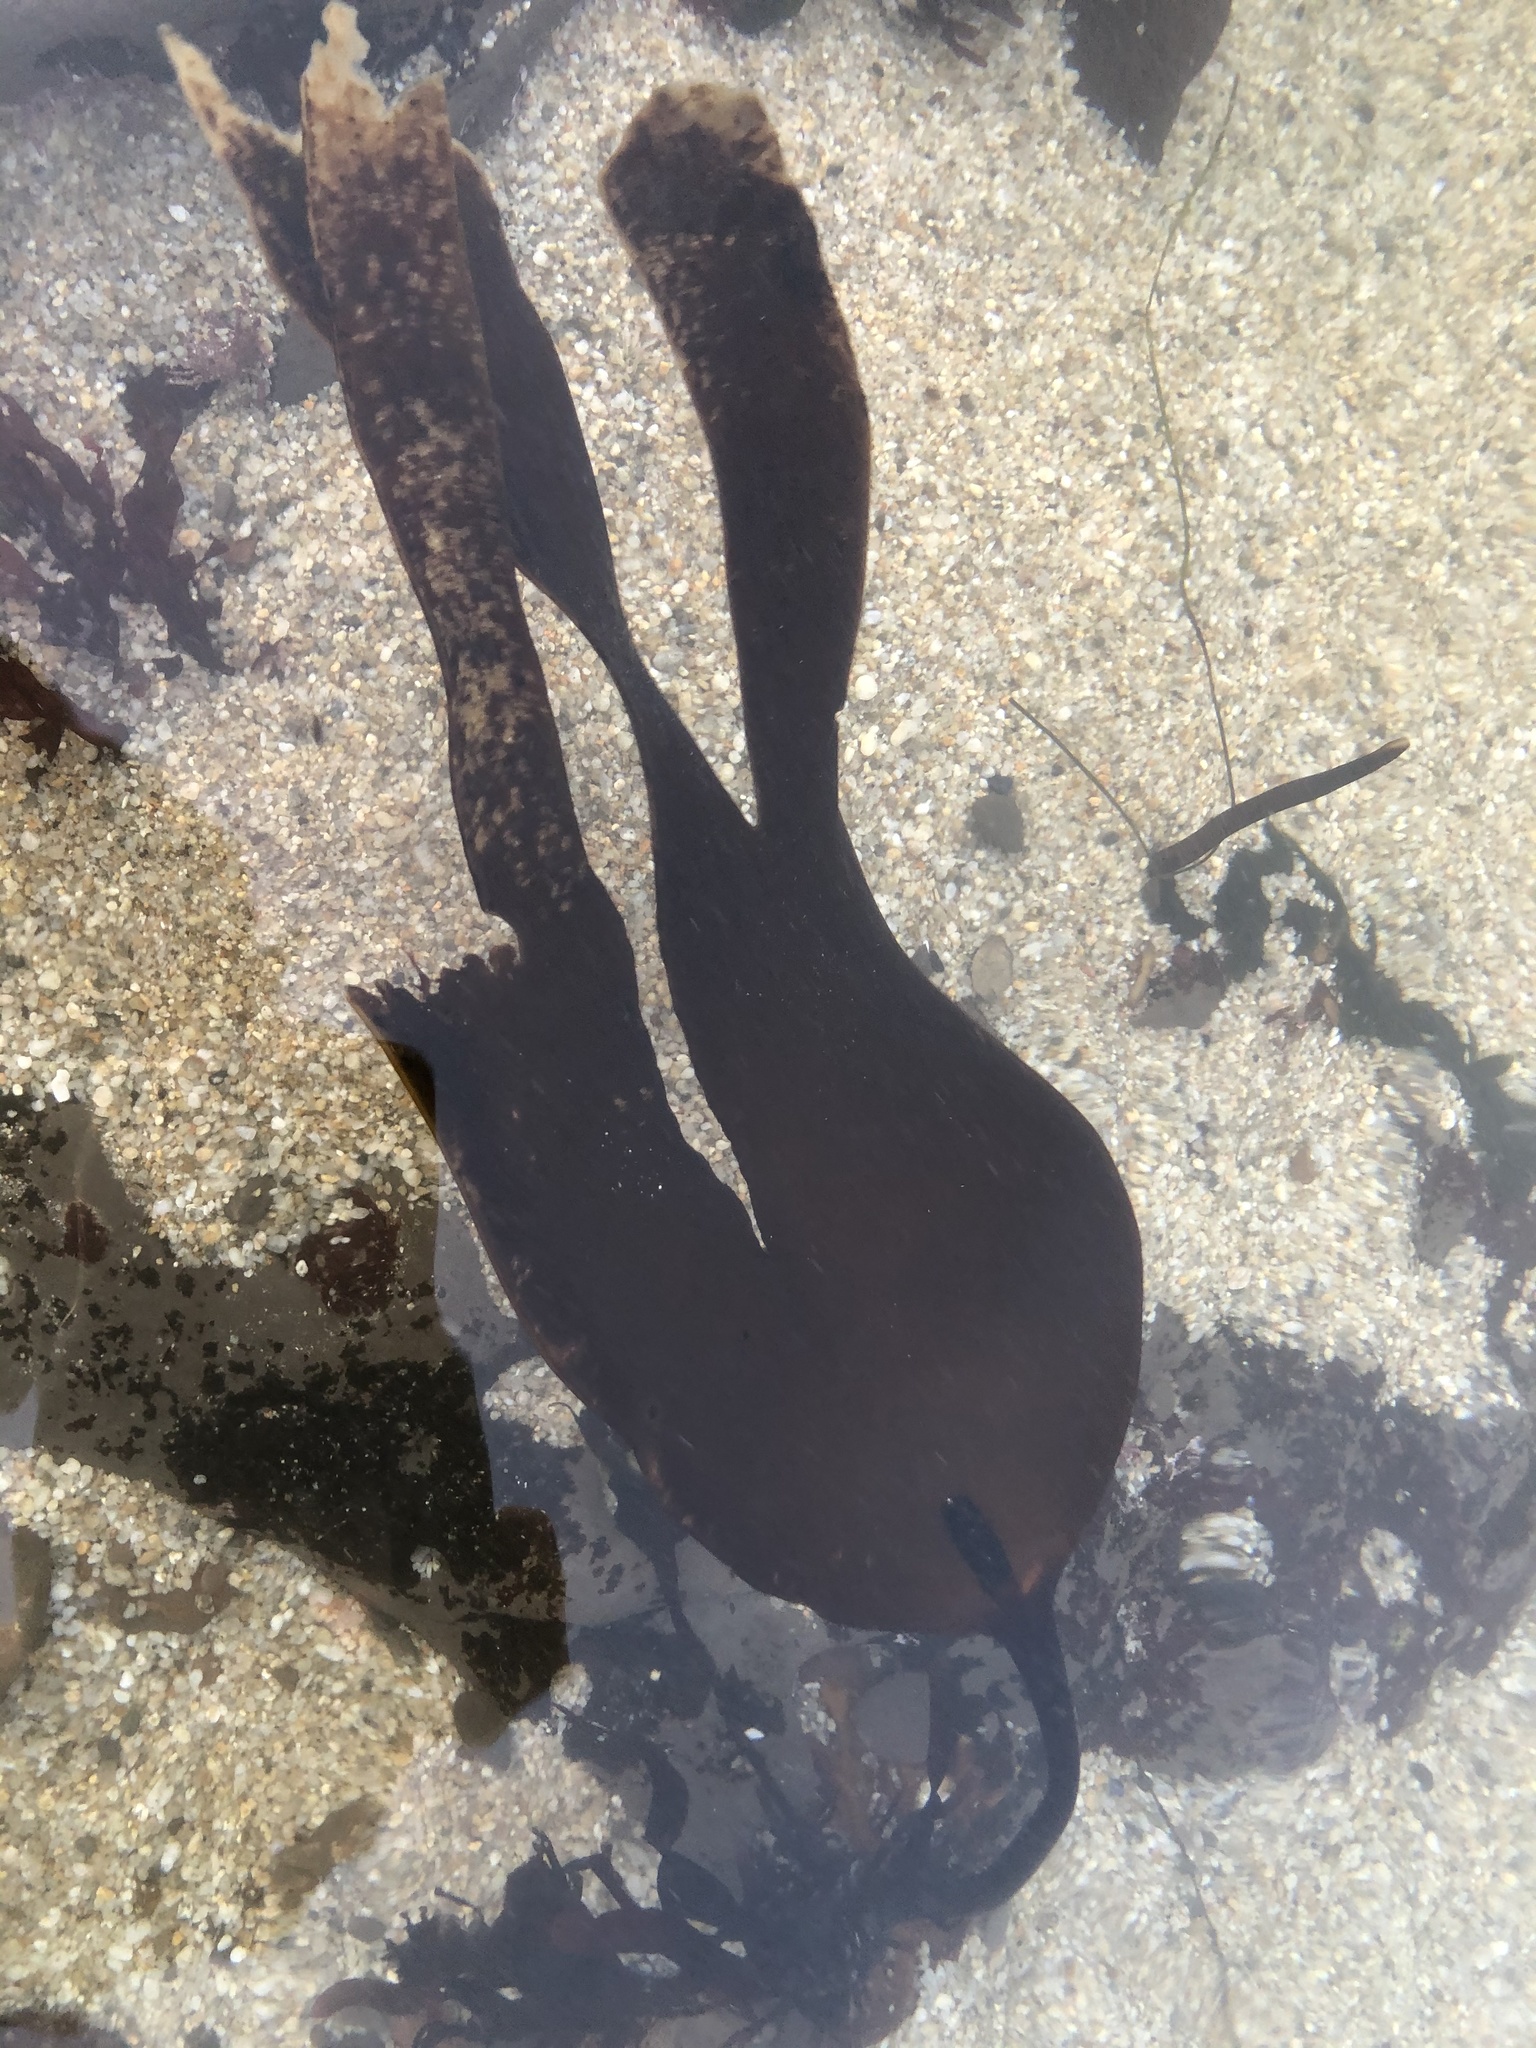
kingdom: Chromista
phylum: Ochrophyta
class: Phaeophyceae
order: Laminariales
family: Laminariaceae
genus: Laminaria
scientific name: Laminaria setchellii
